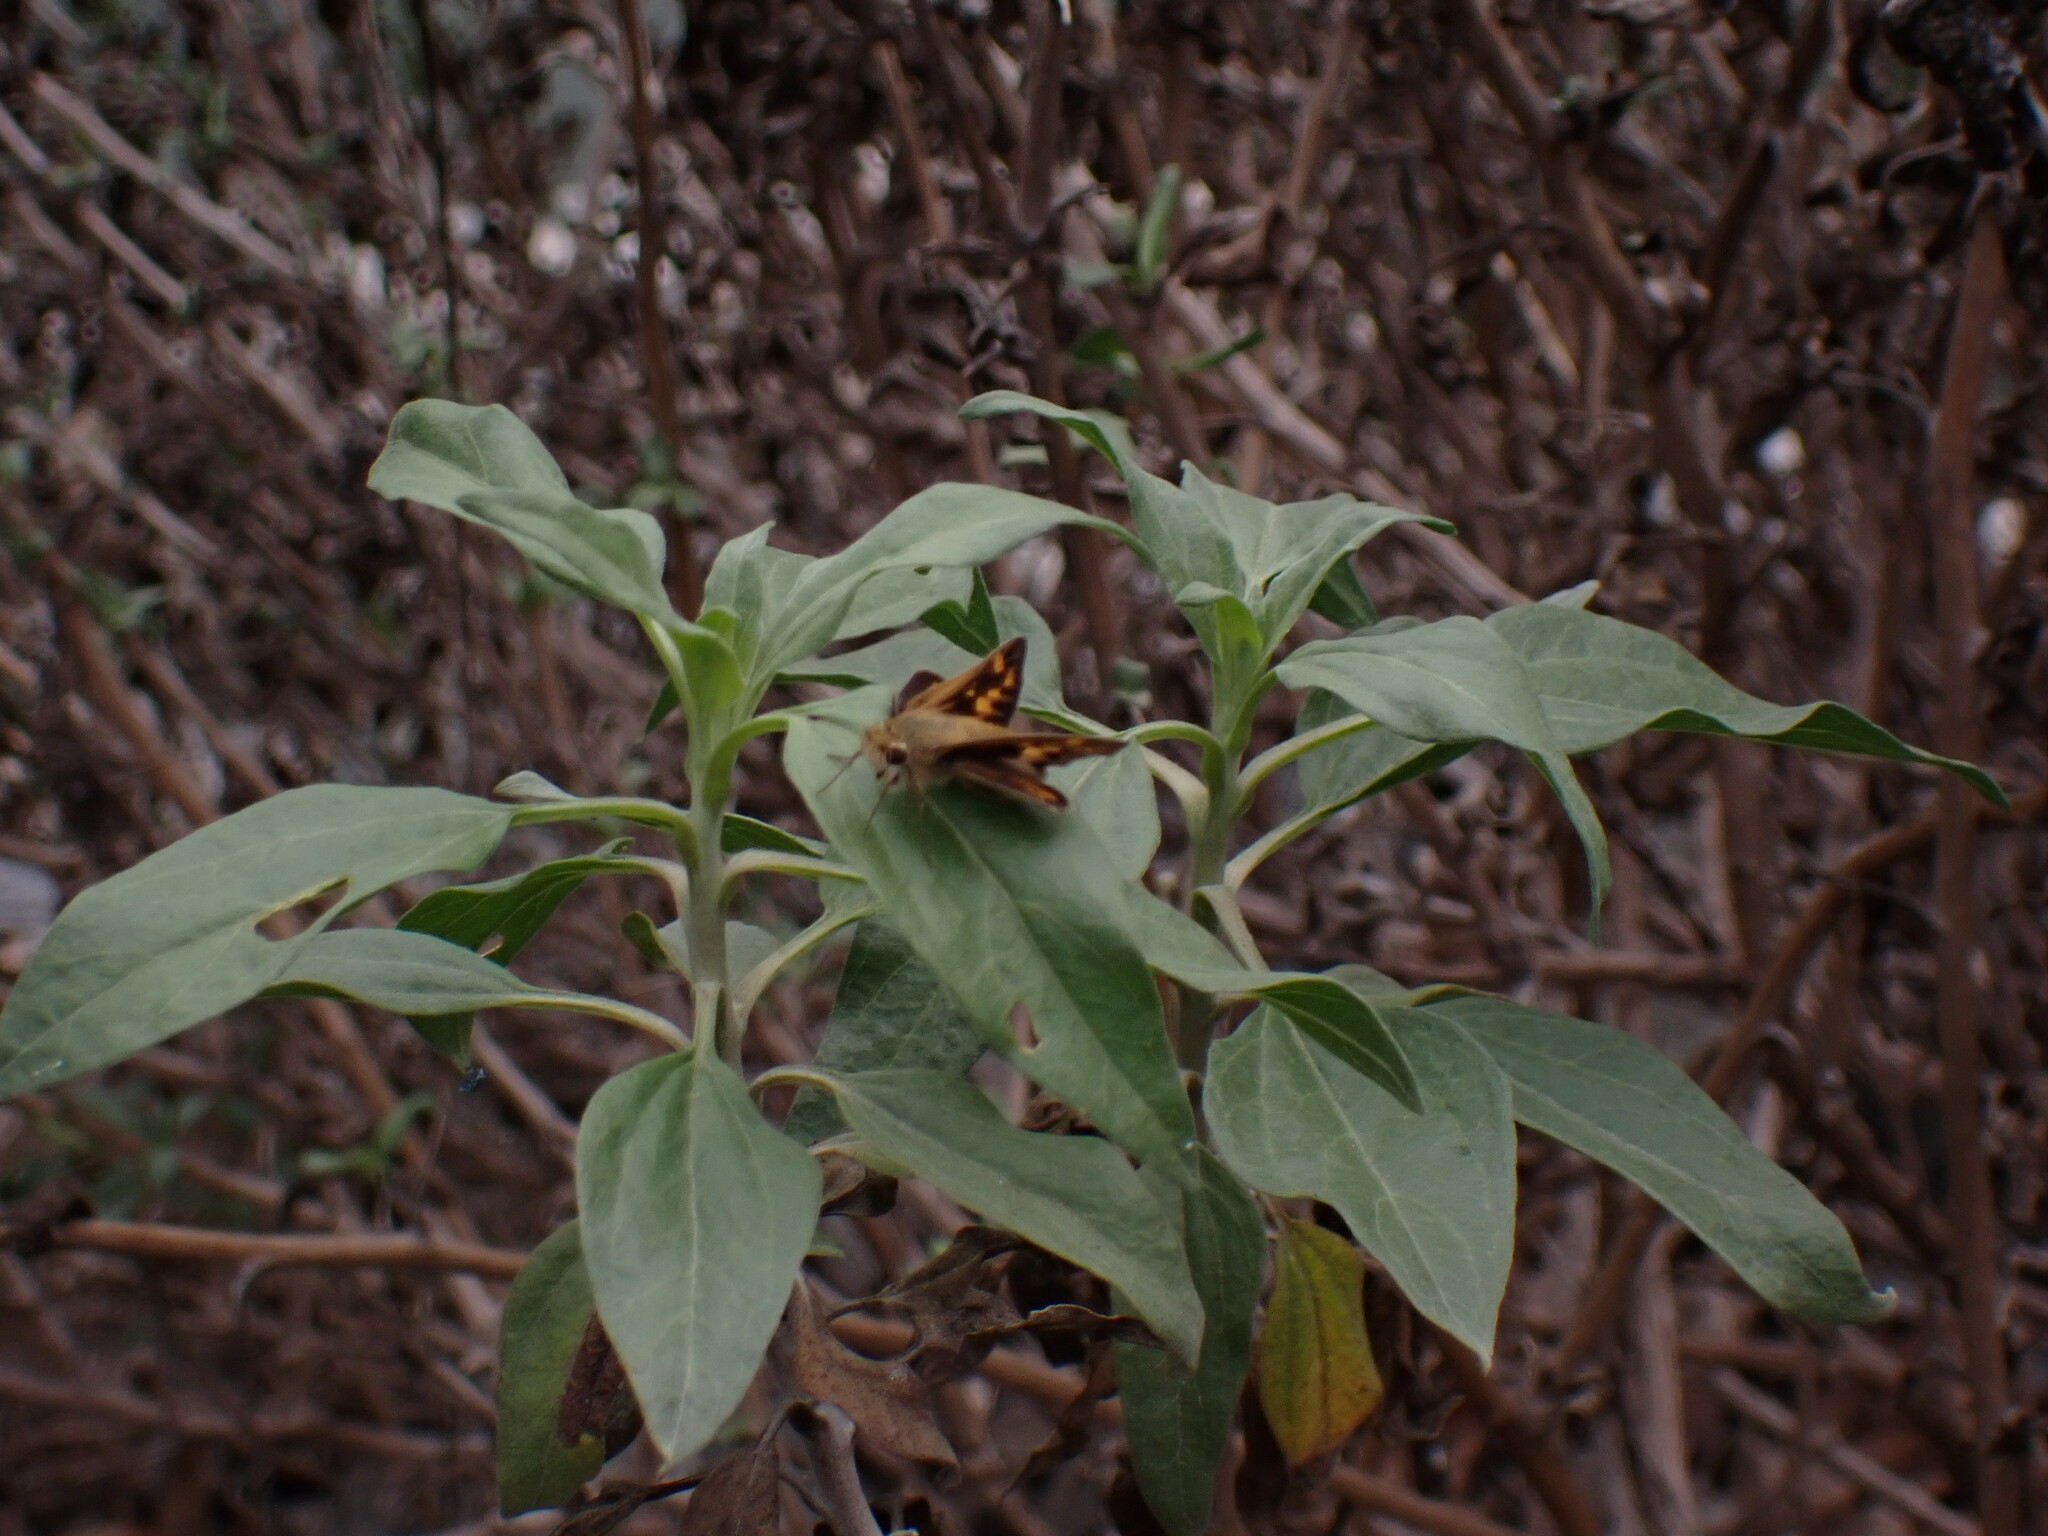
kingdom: Animalia
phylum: Arthropoda
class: Insecta
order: Lepidoptera
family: Hesperiidae
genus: Hylephila
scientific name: Hylephila phyleus
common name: Fiery skipper
